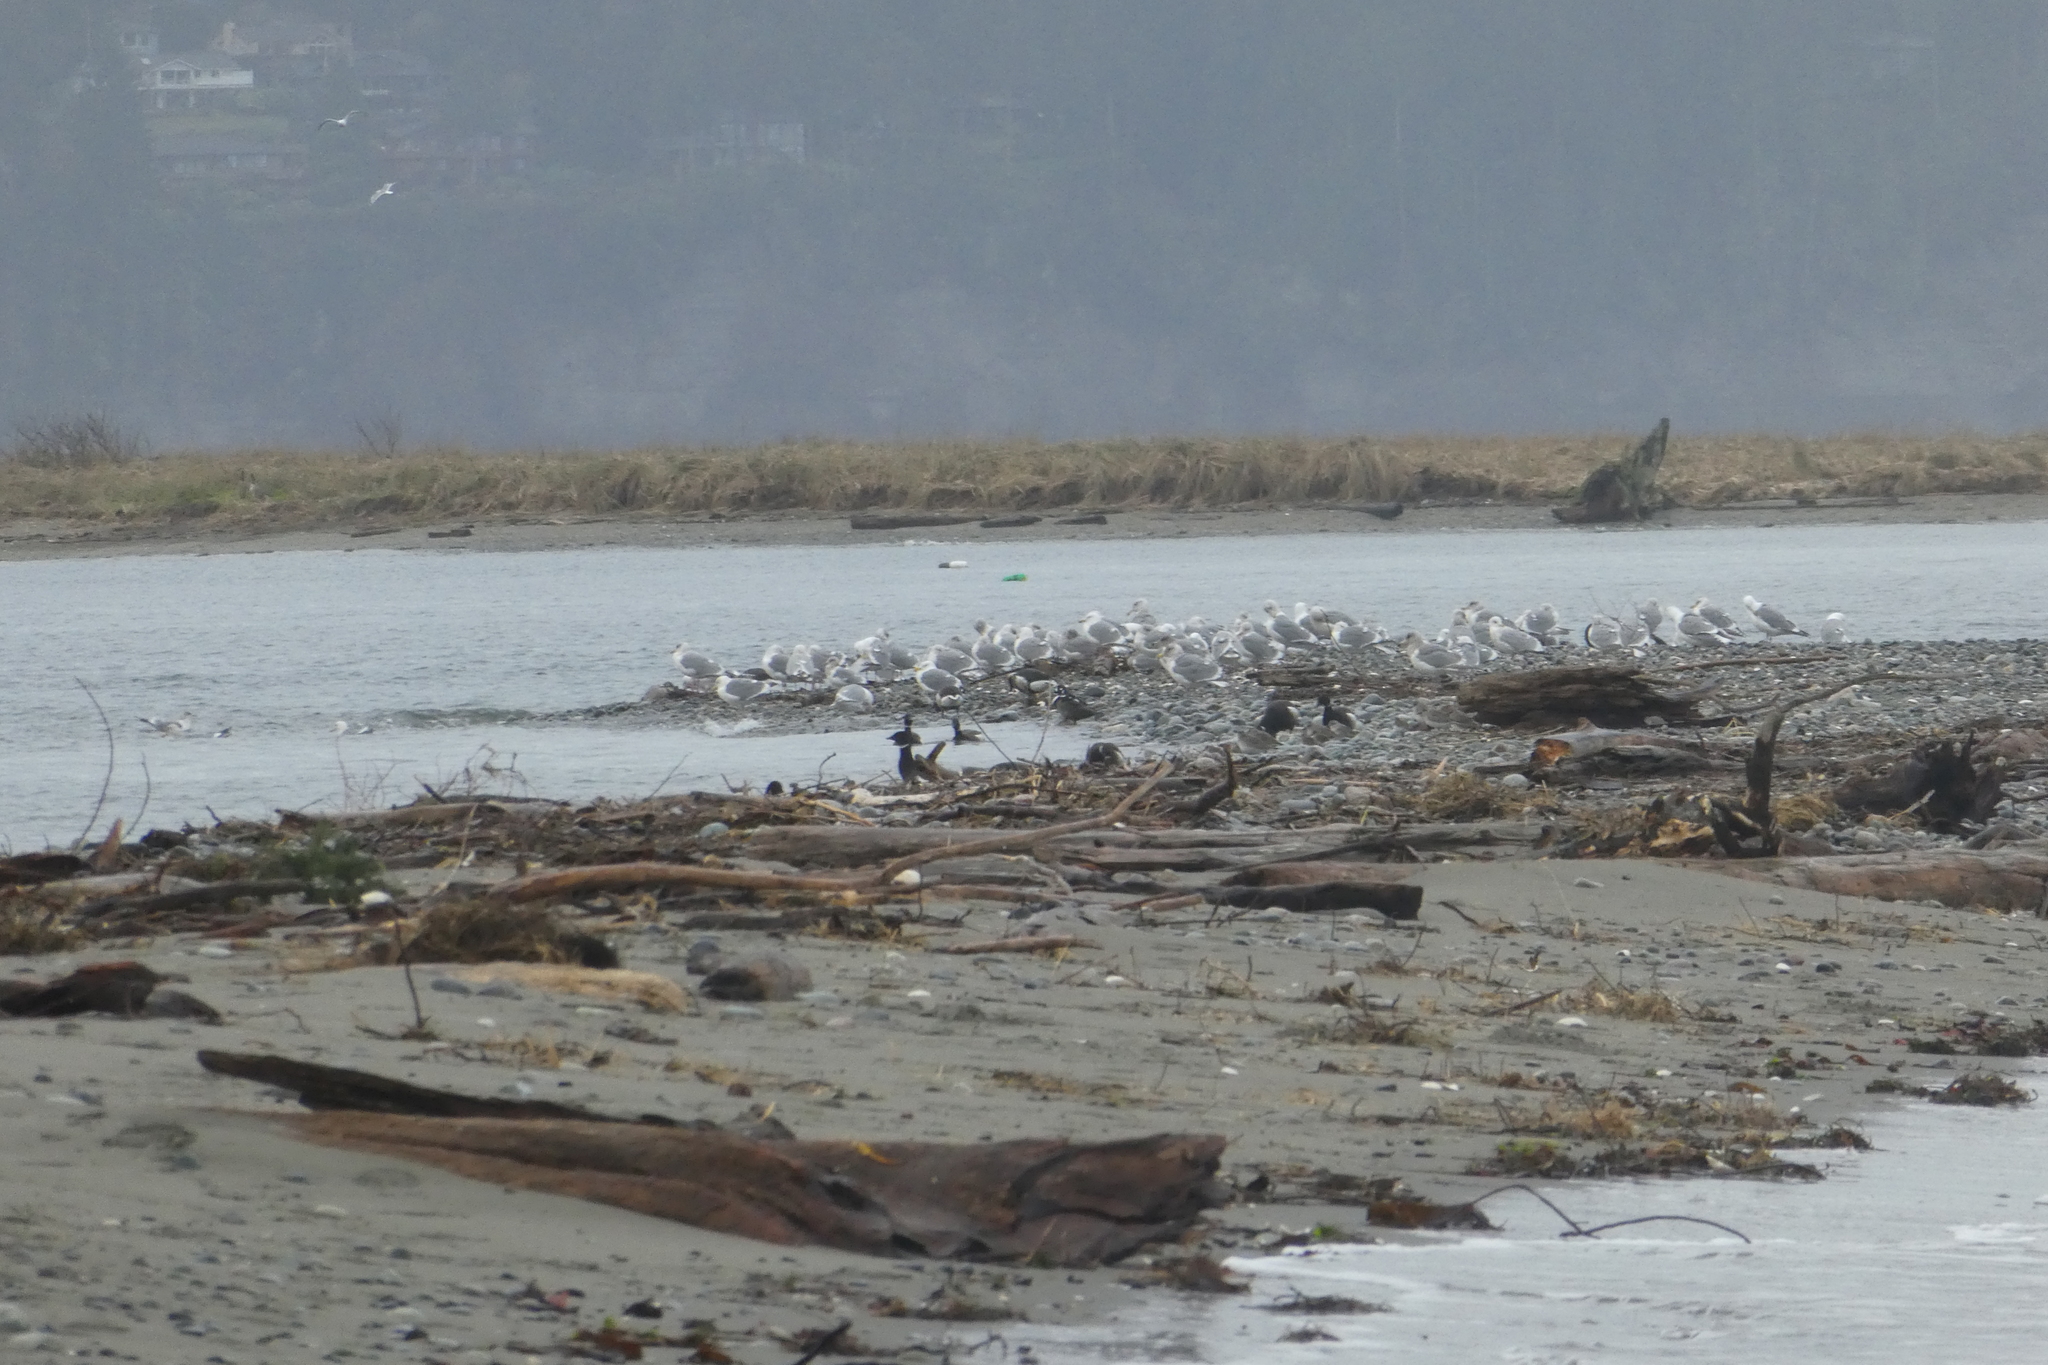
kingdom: Animalia
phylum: Chordata
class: Aves
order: Anseriformes
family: Anatidae
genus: Branta
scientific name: Branta bernicla
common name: Brant goose
